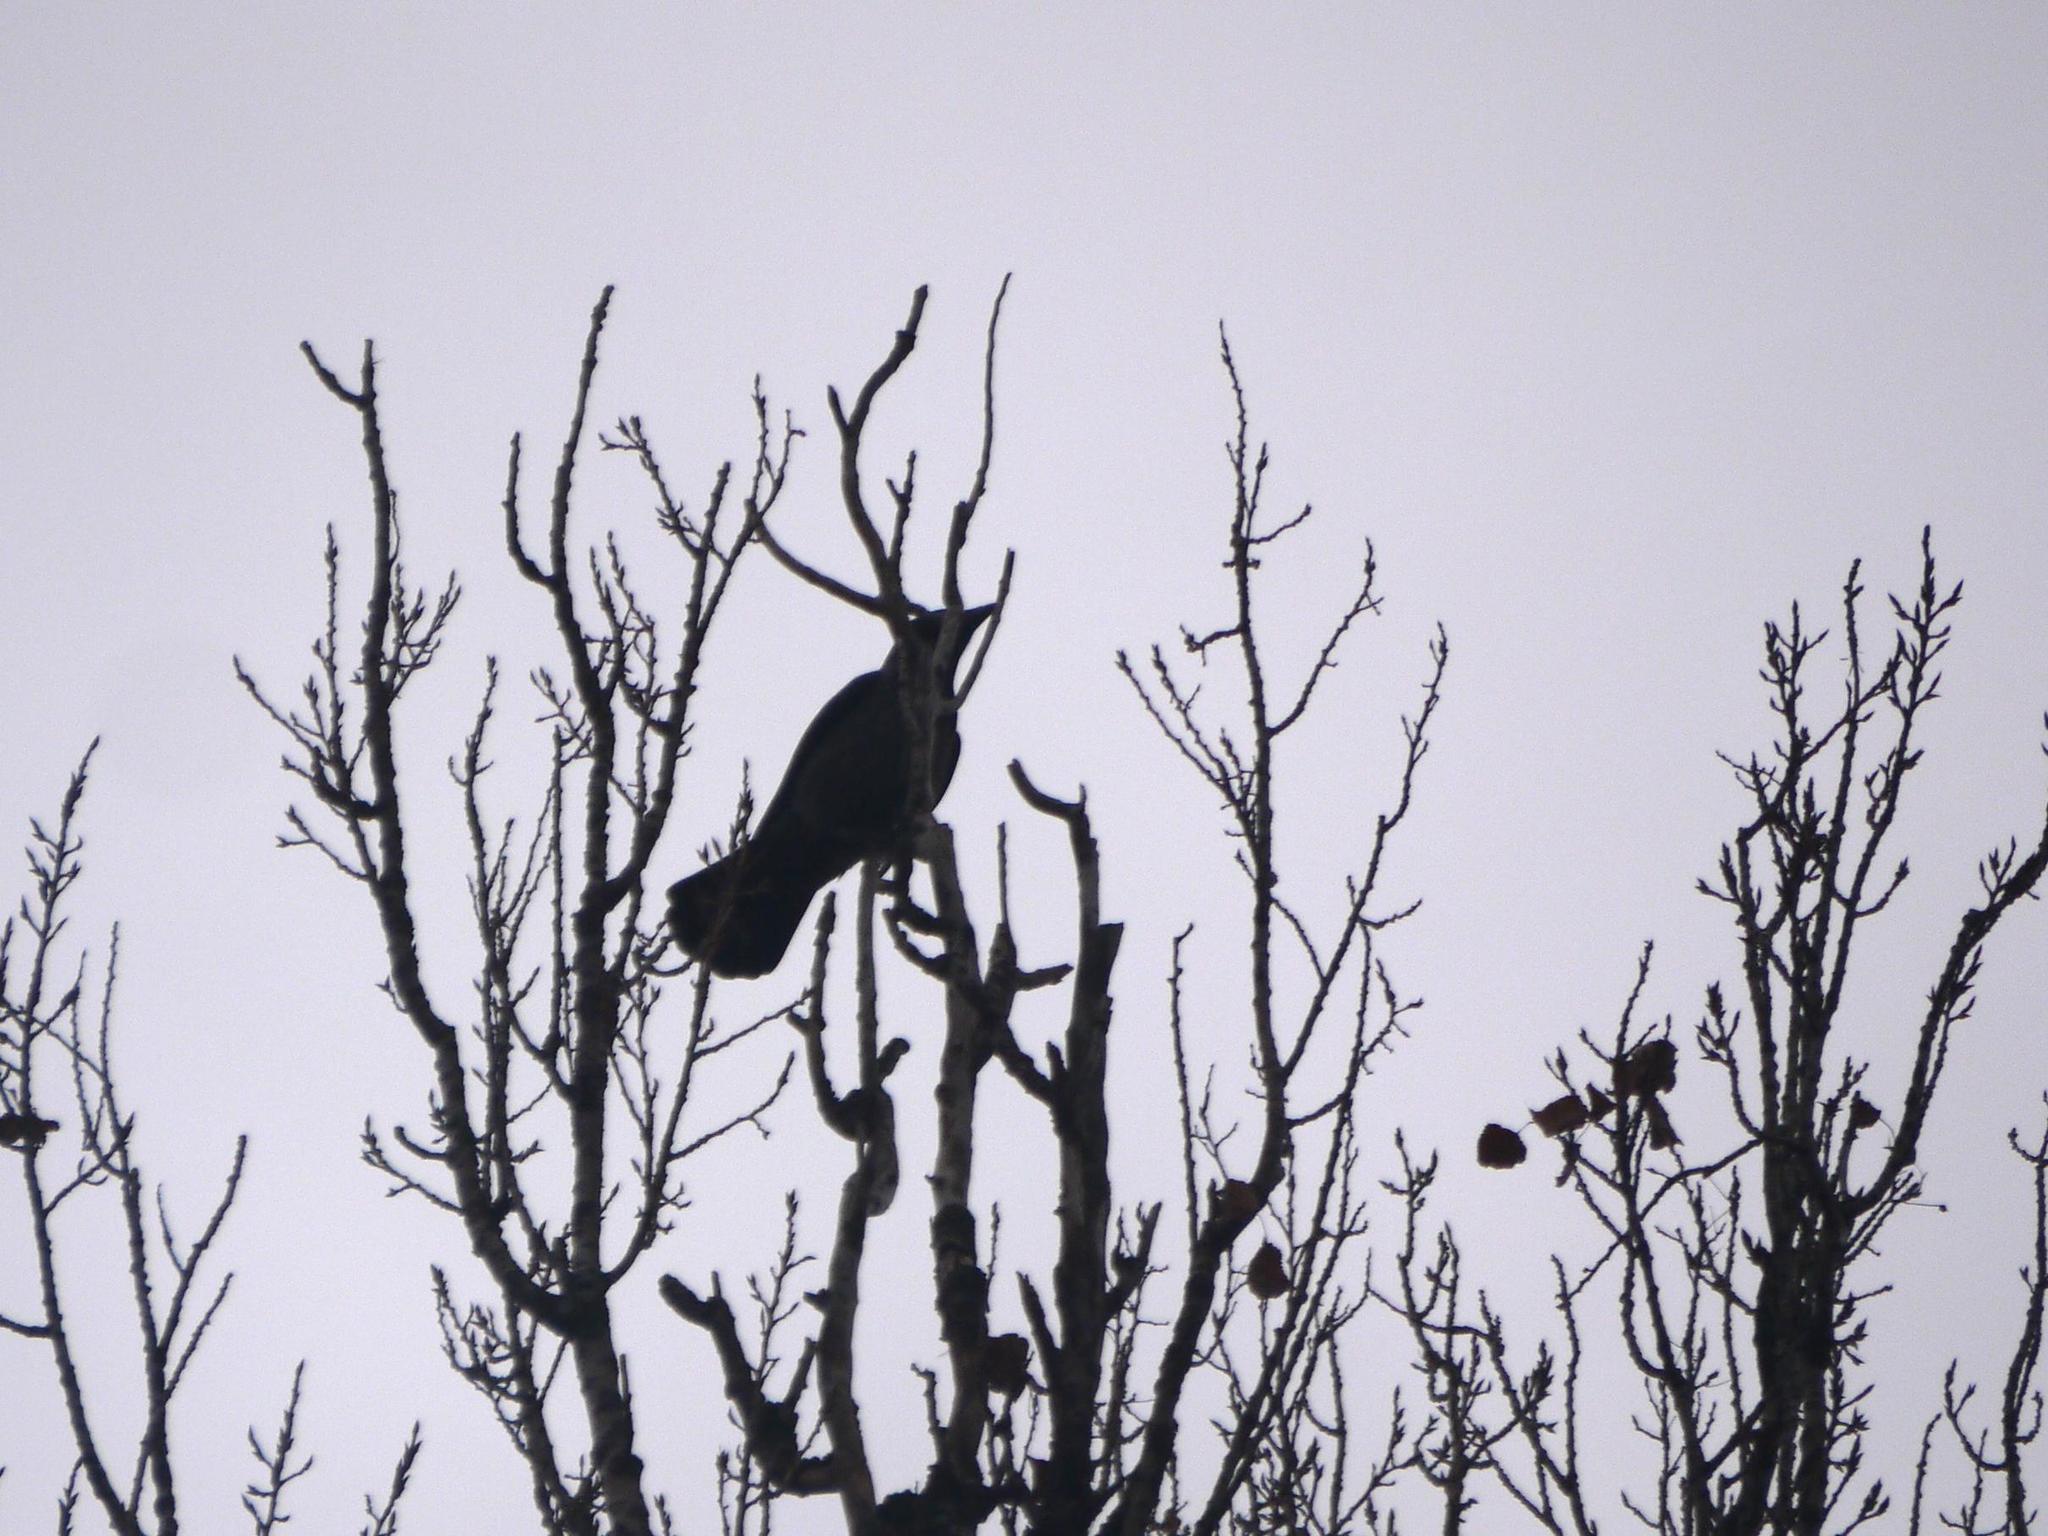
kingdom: Animalia
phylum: Chordata
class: Aves
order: Passeriformes
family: Corvidae
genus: Corvus
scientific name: Corvus cornix
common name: Hooded crow
